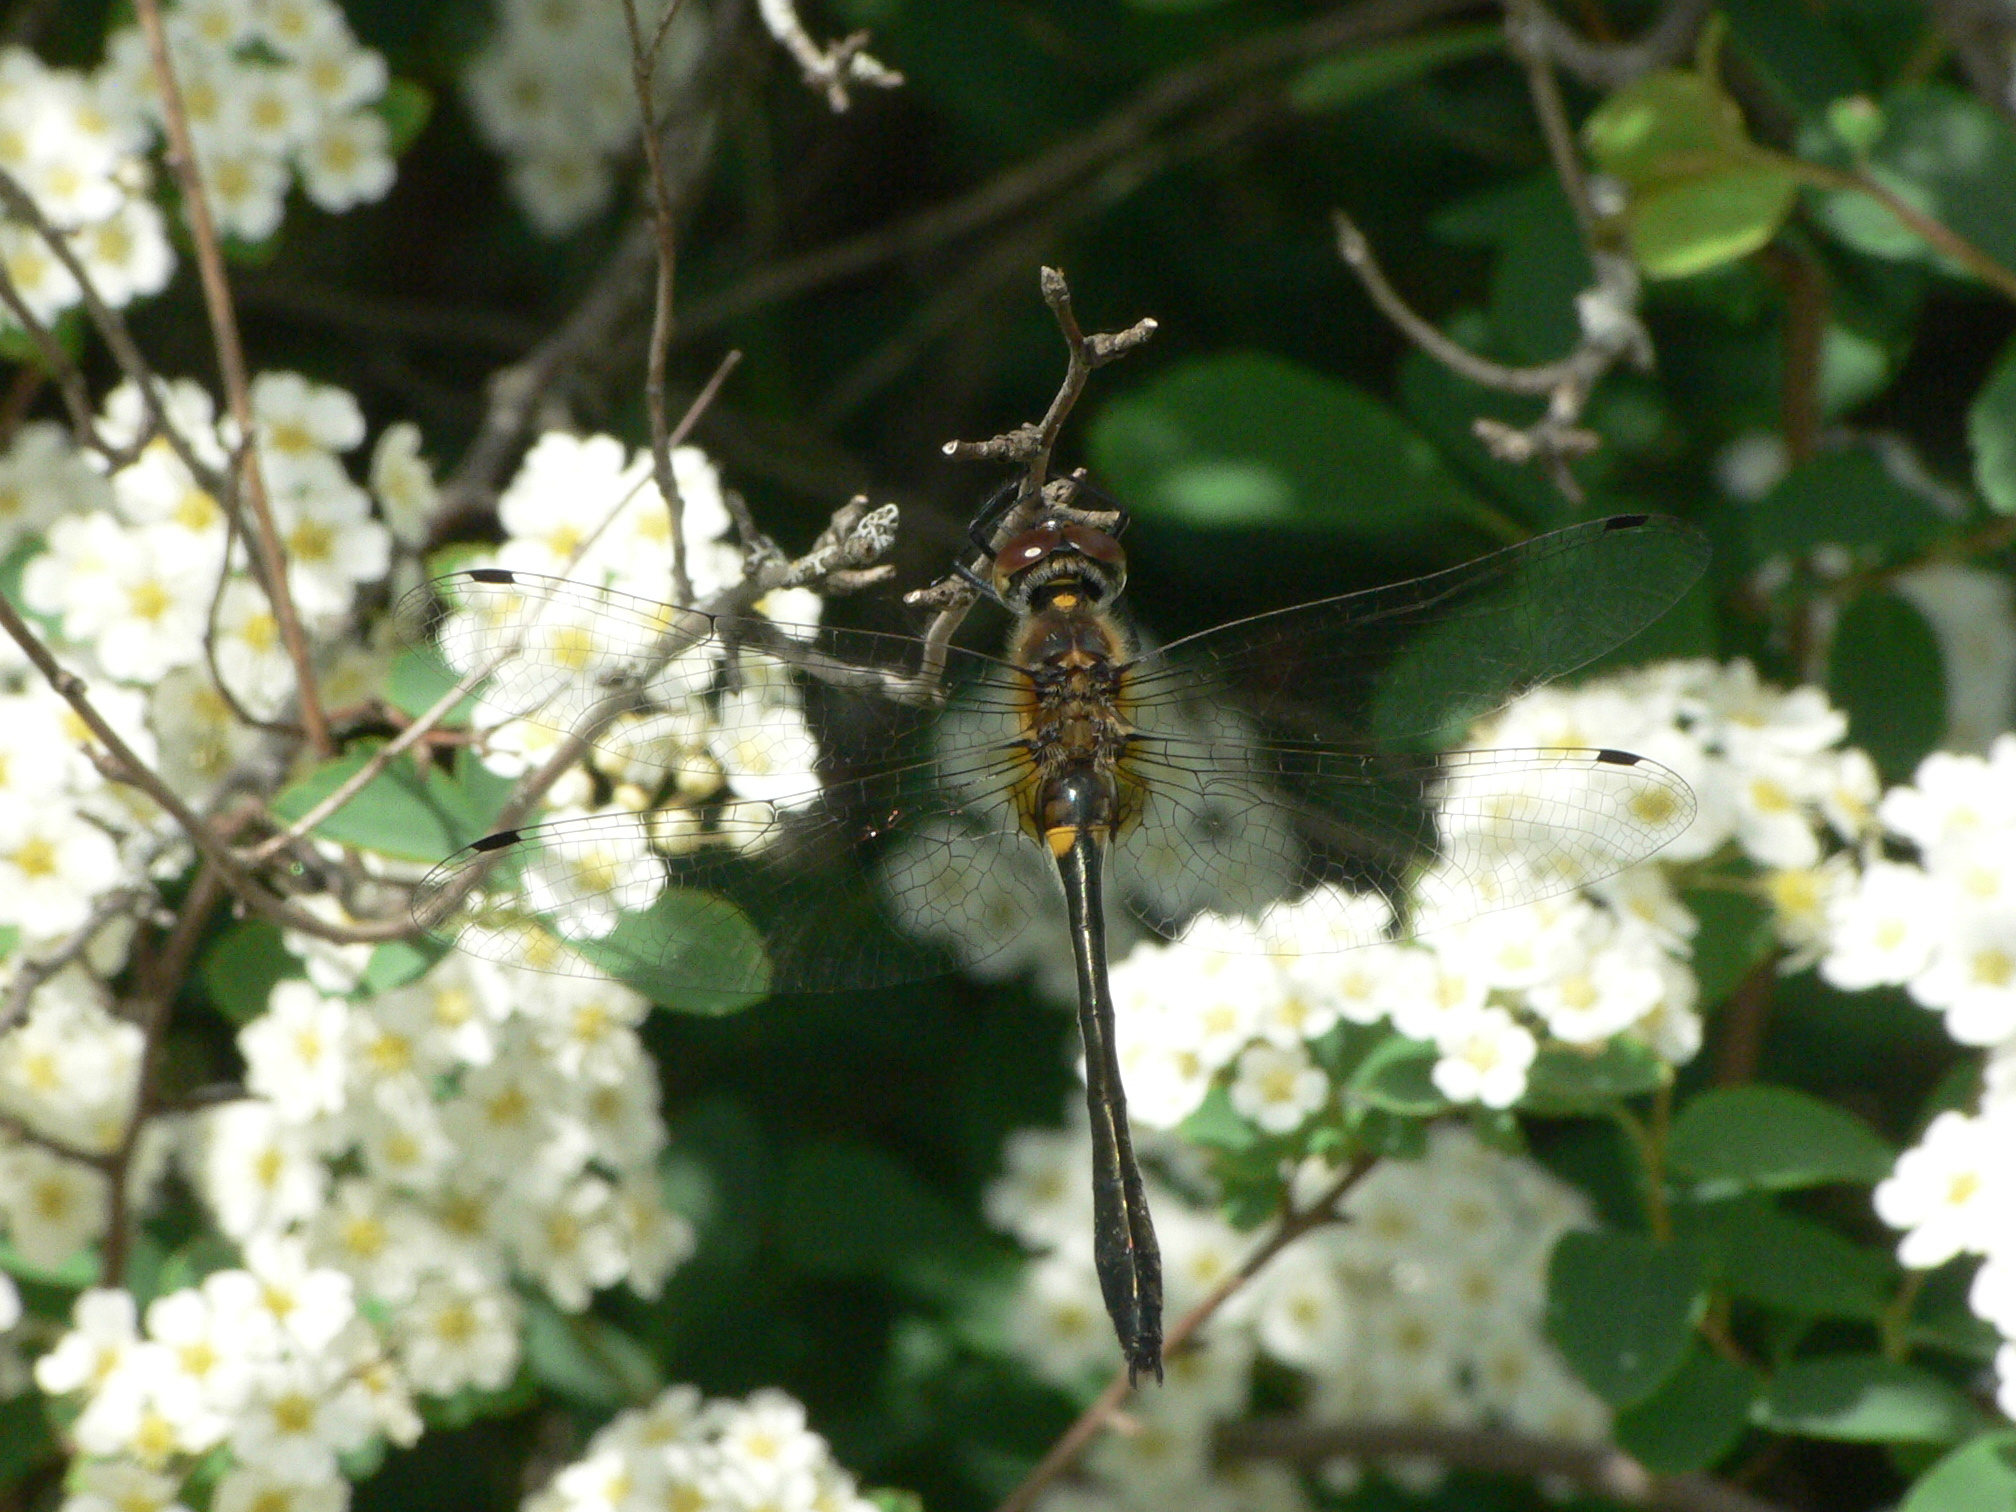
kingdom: Animalia
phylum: Arthropoda
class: Insecta
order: Odonata
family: Corduliidae
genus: Dorocordulia
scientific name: Dorocordulia libera
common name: Racket-tailed emerald
